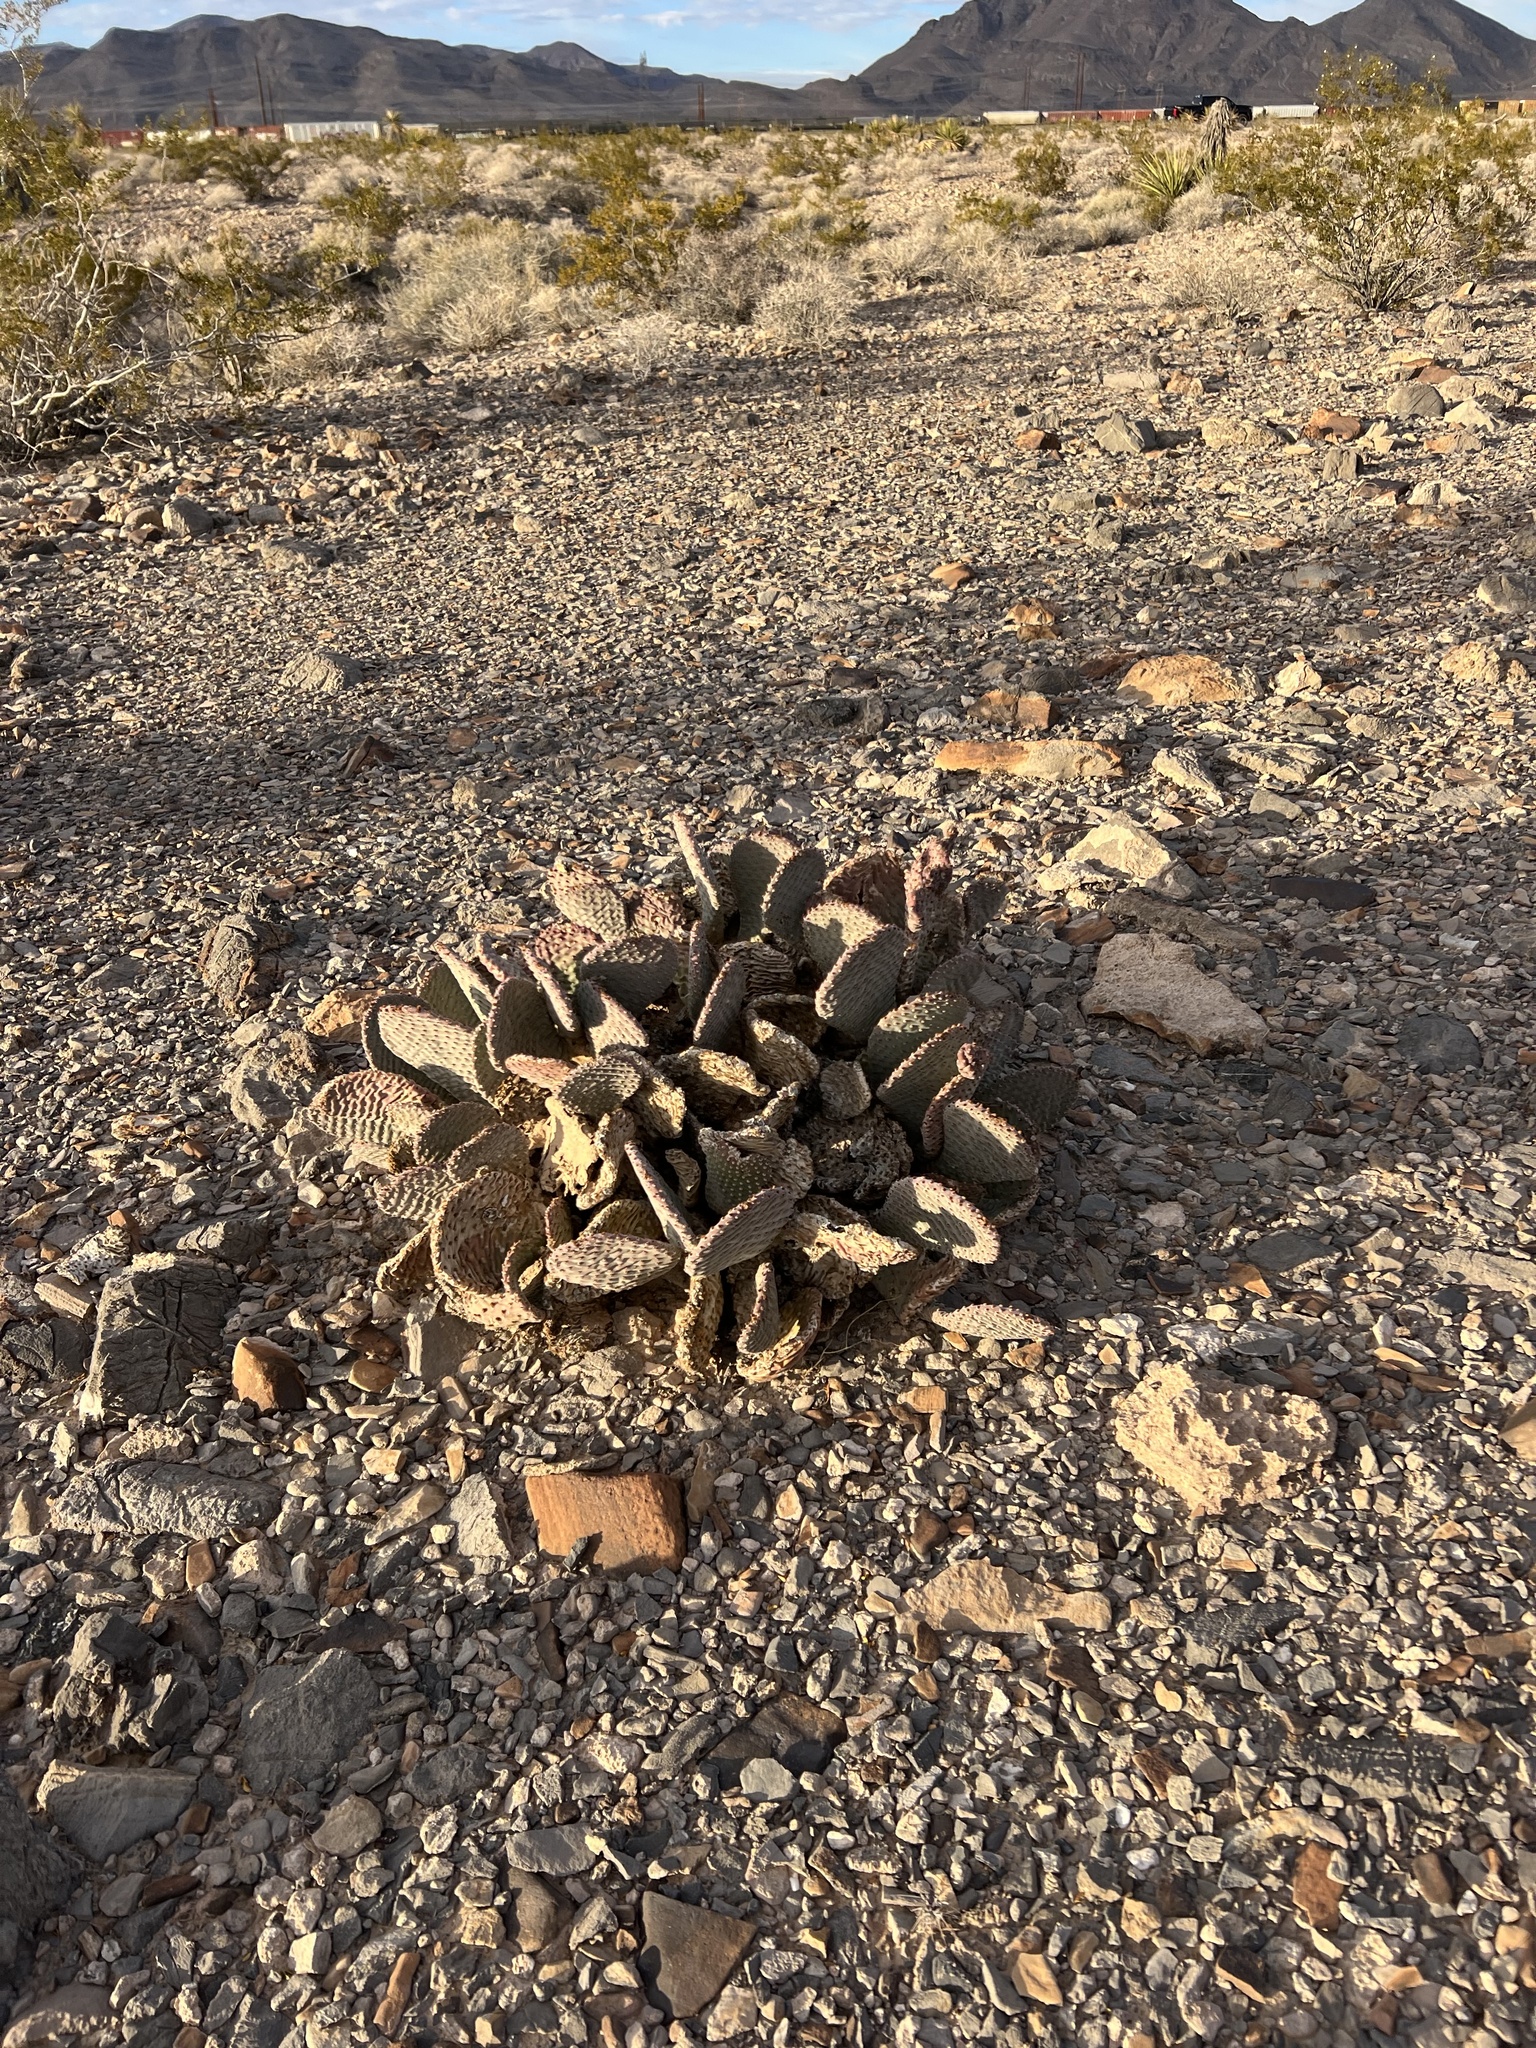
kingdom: Plantae
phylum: Tracheophyta
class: Magnoliopsida
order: Caryophyllales
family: Cactaceae
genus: Opuntia
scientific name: Opuntia basilaris
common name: Beavertail prickly-pear
